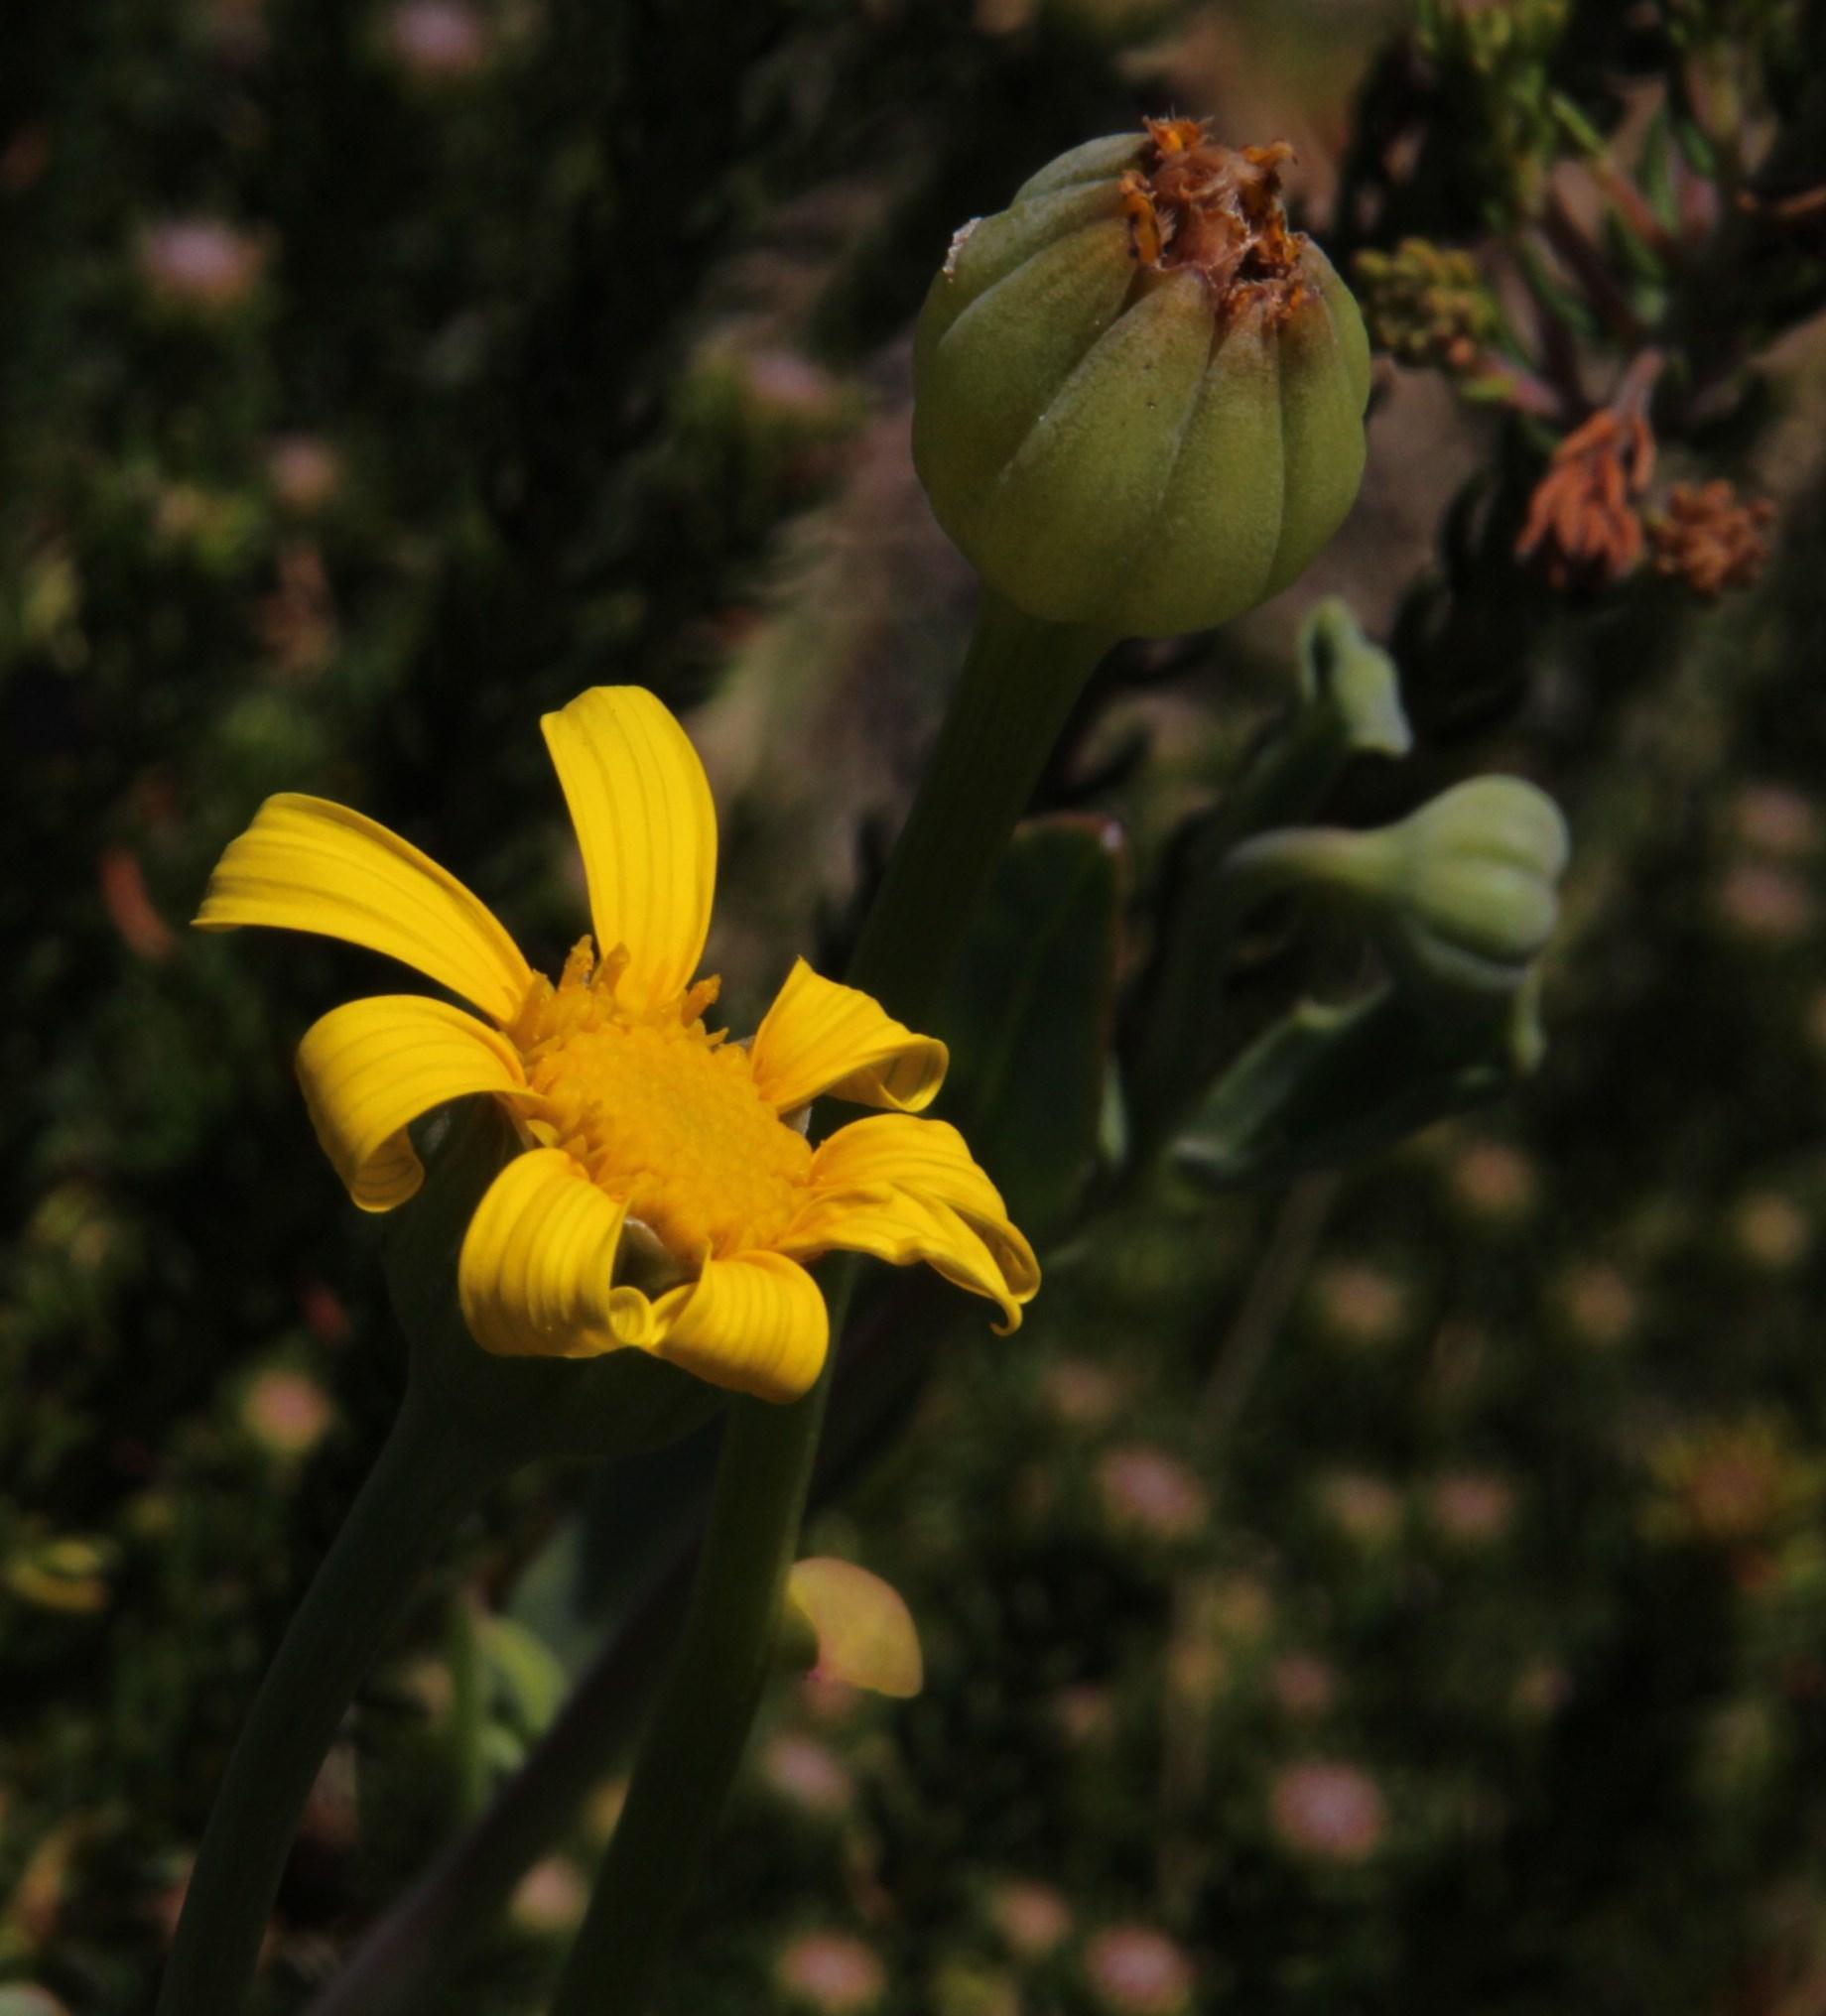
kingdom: Plantae
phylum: Tracheophyta
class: Magnoliopsida
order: Asterales
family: Asteraceae
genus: Othonna
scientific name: Othonna coronopifolia
